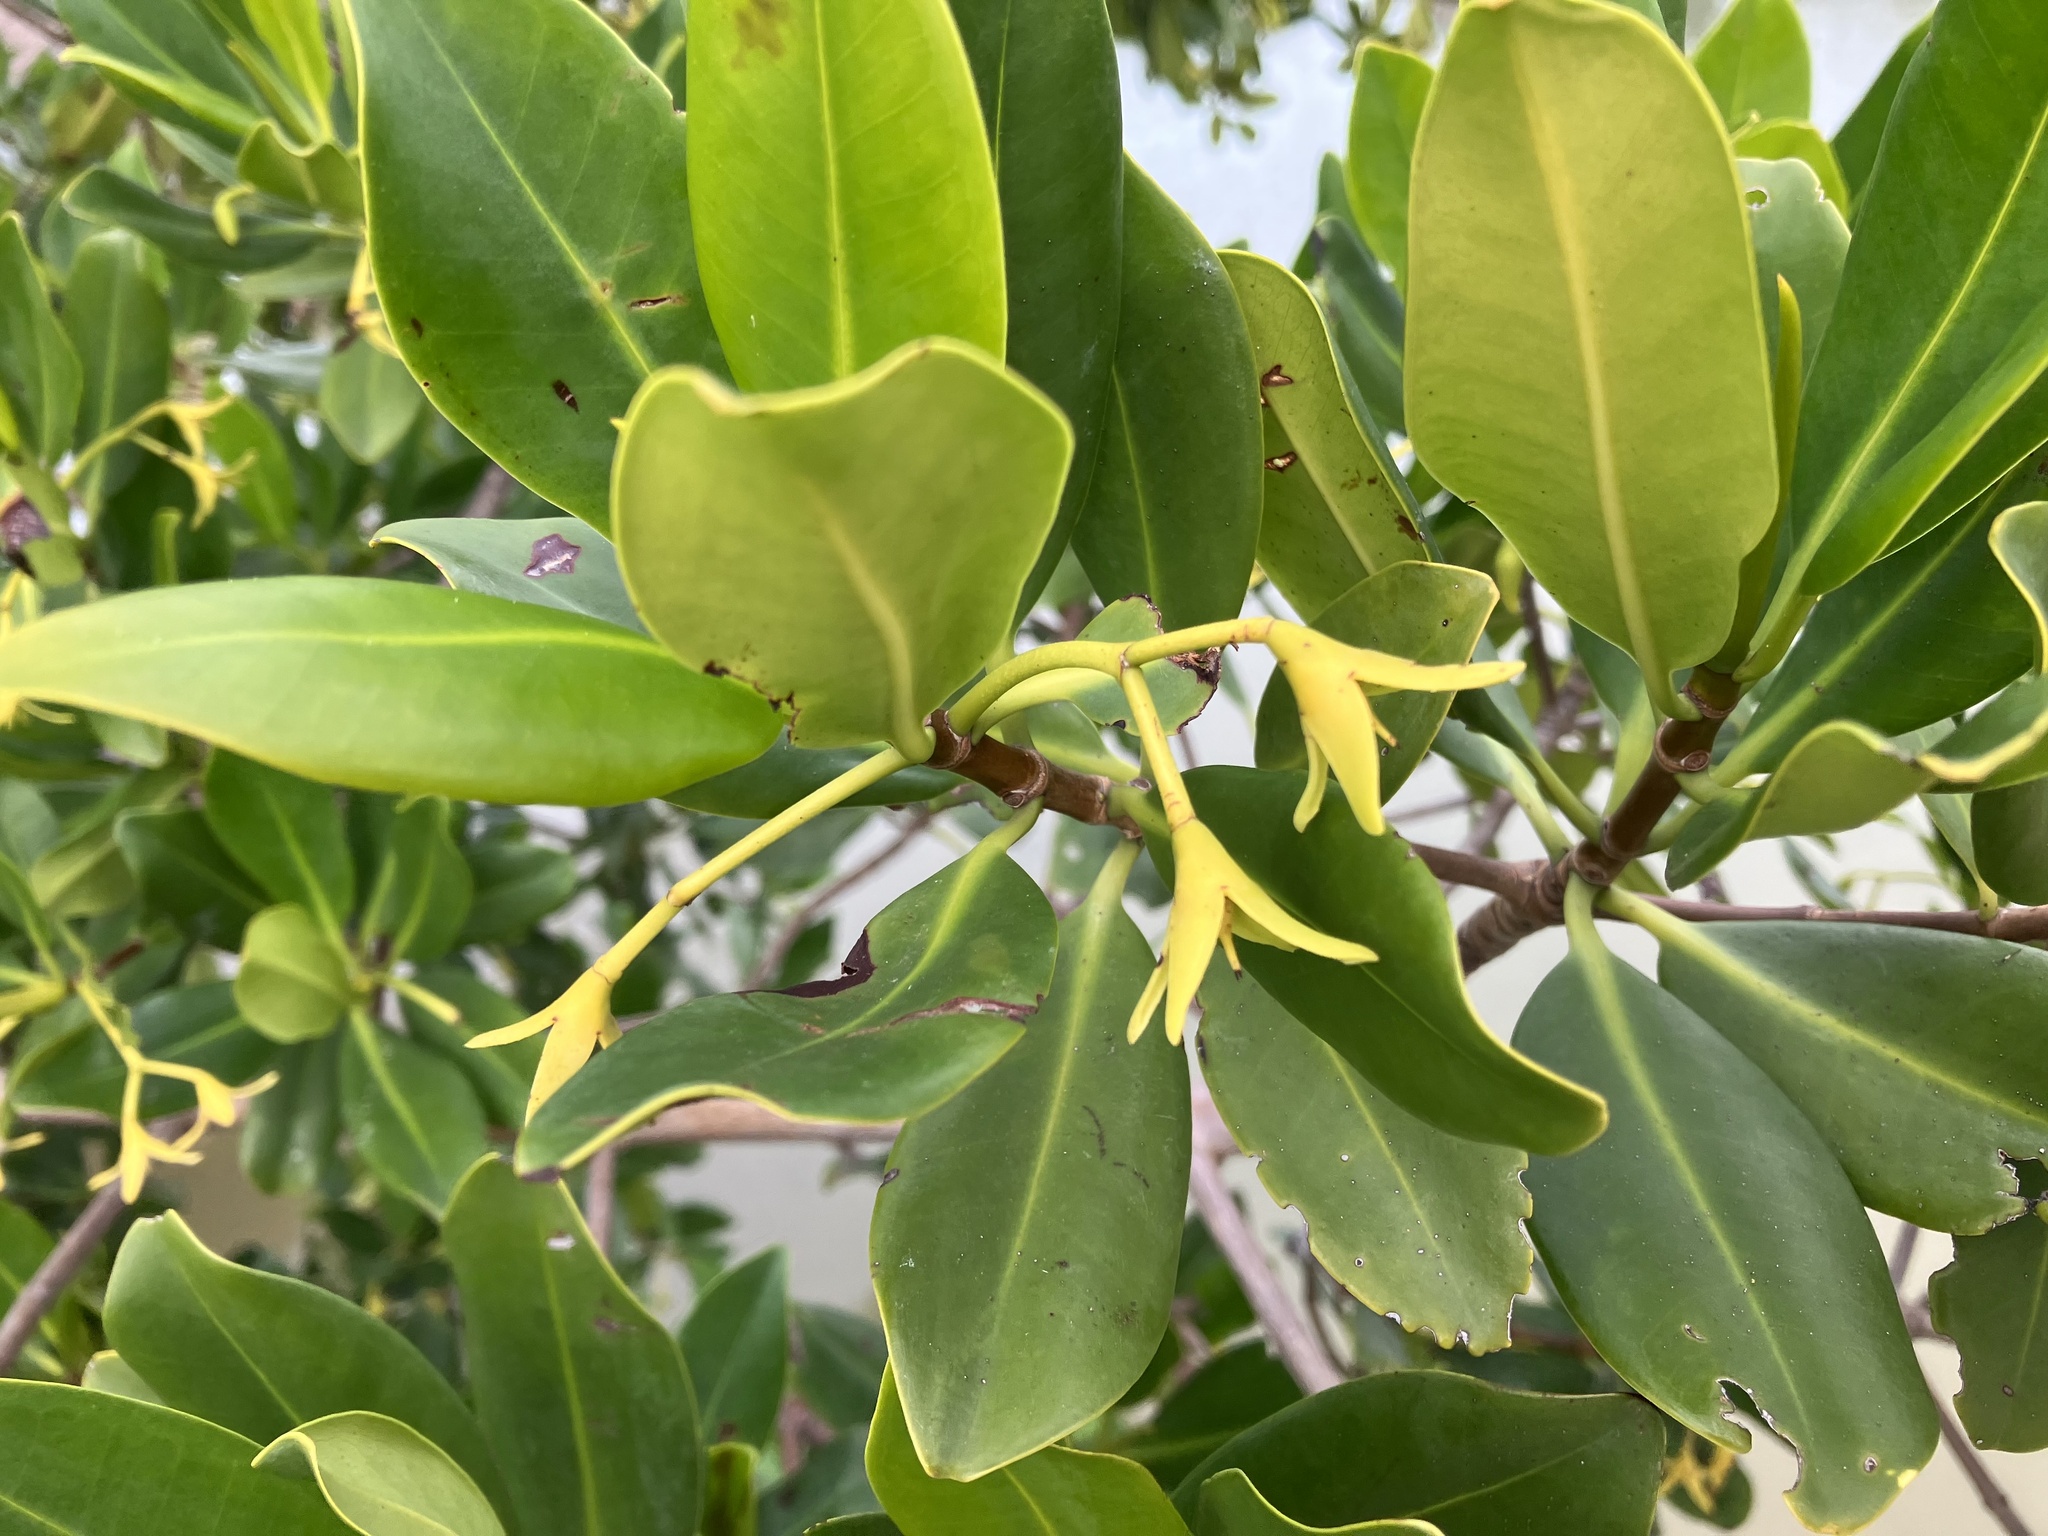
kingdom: Plantae
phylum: Tracheophyta
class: Magnoliopsida
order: Malpighiales
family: Rhizophoraceae
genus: Rhizophora
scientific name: Rhizophora mangle
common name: Red mangrove
